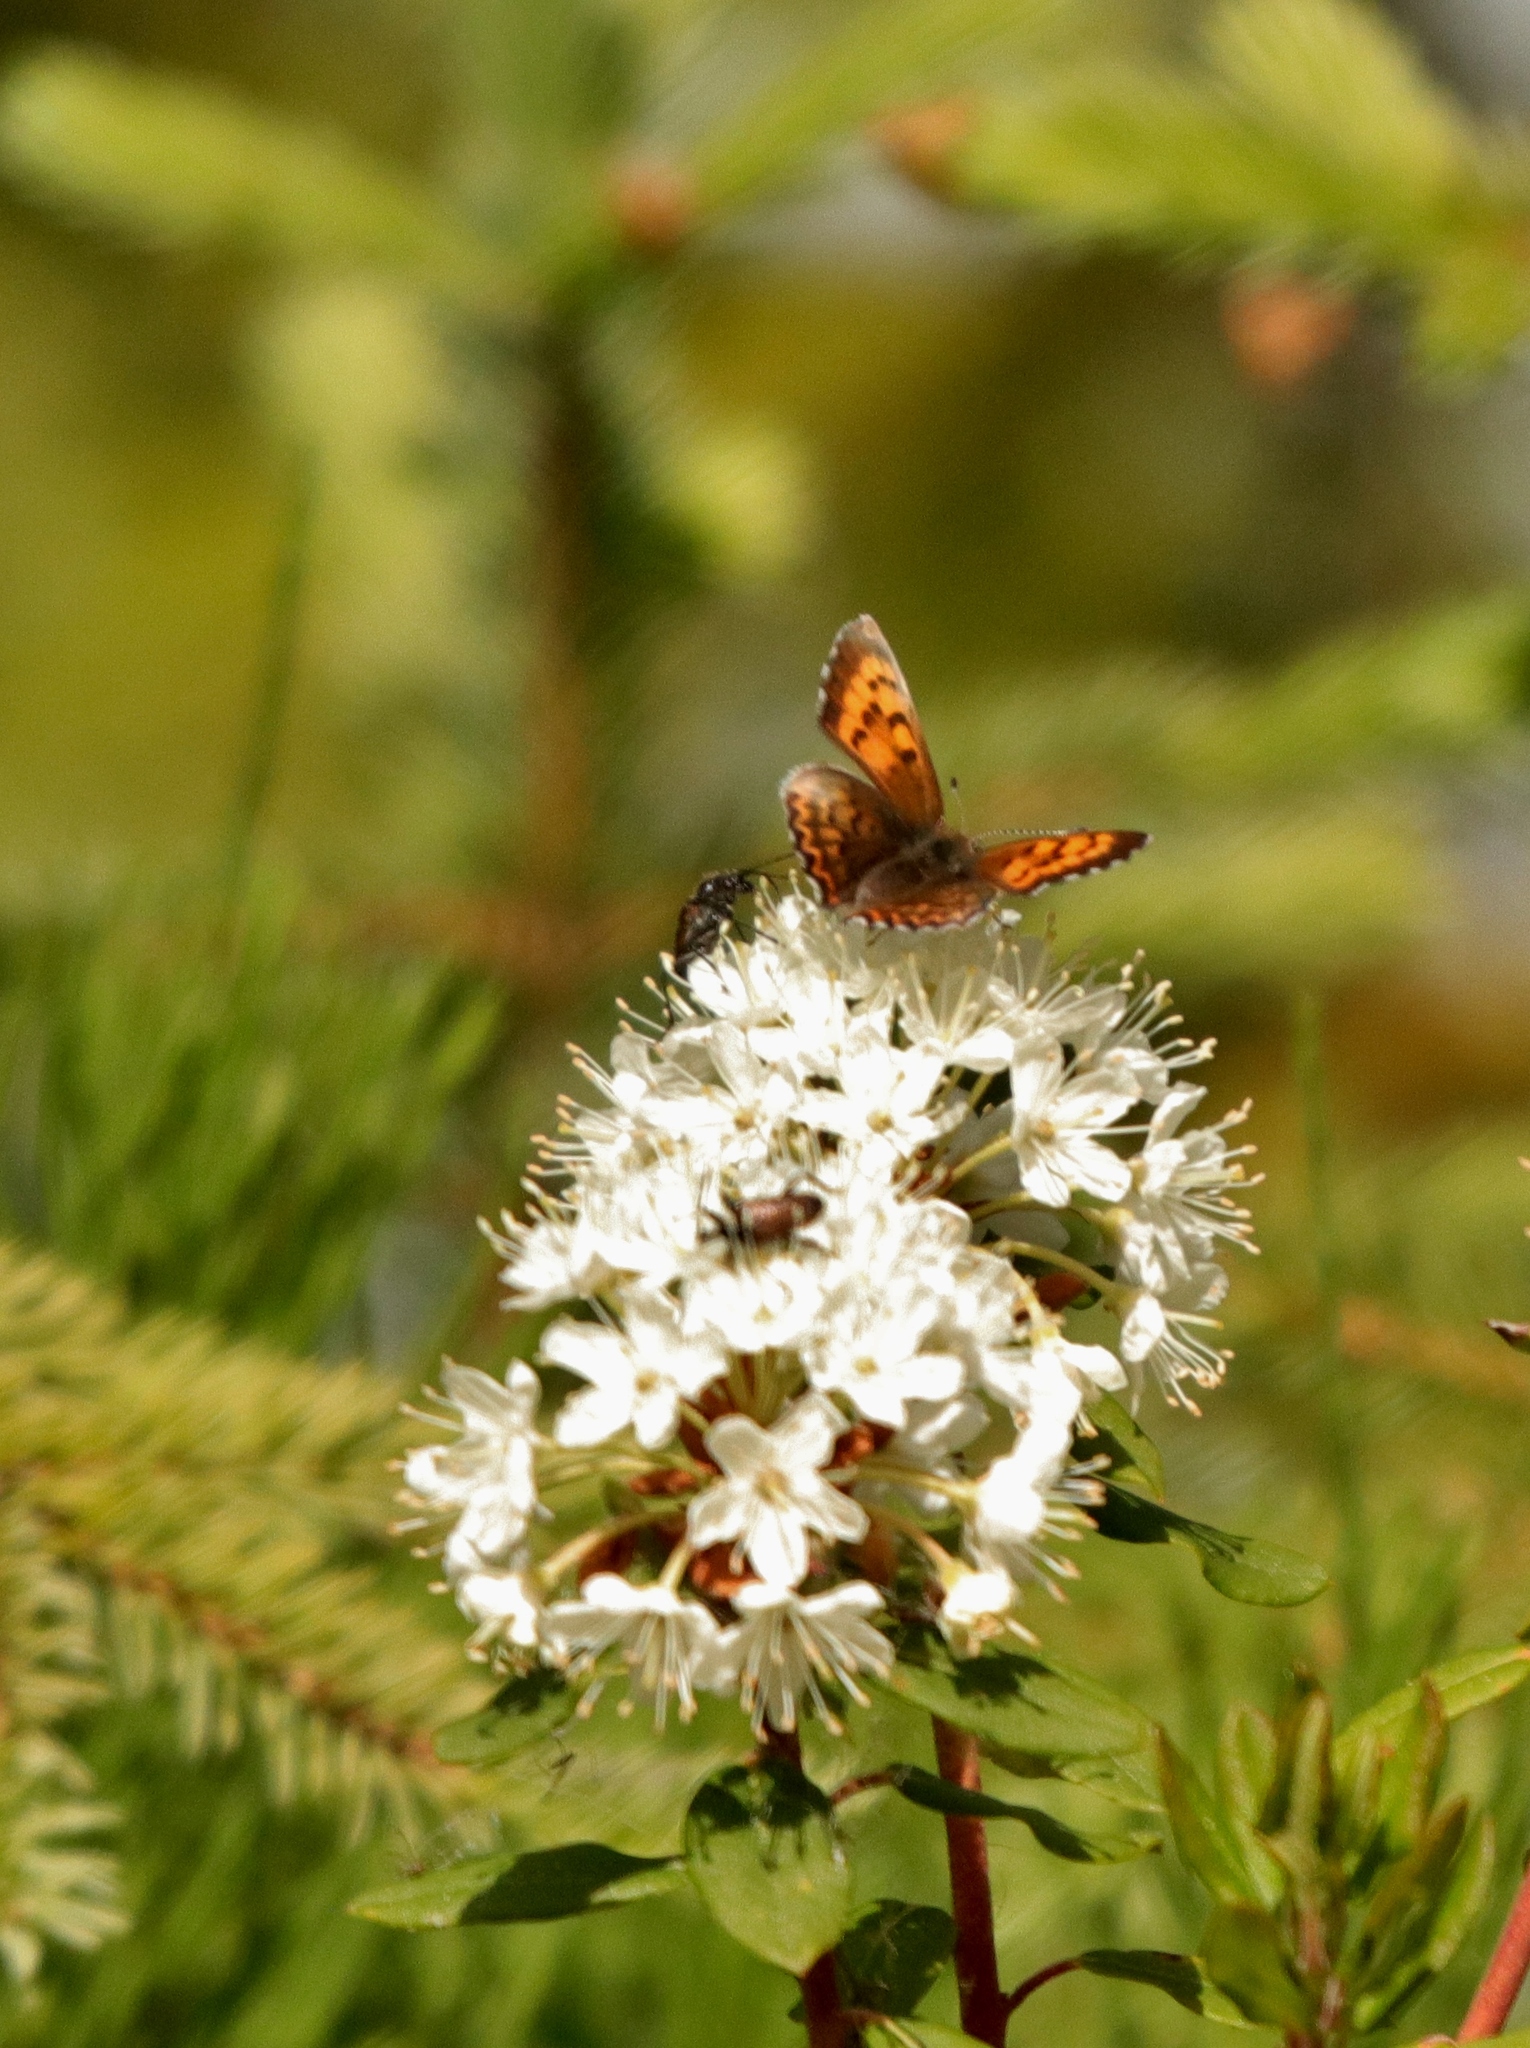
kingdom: Animalia
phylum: Arthropoda
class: Insecta
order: Lepidoptera
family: Lycaenidae
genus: Tharsalea
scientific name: Tharsalea mariposa
